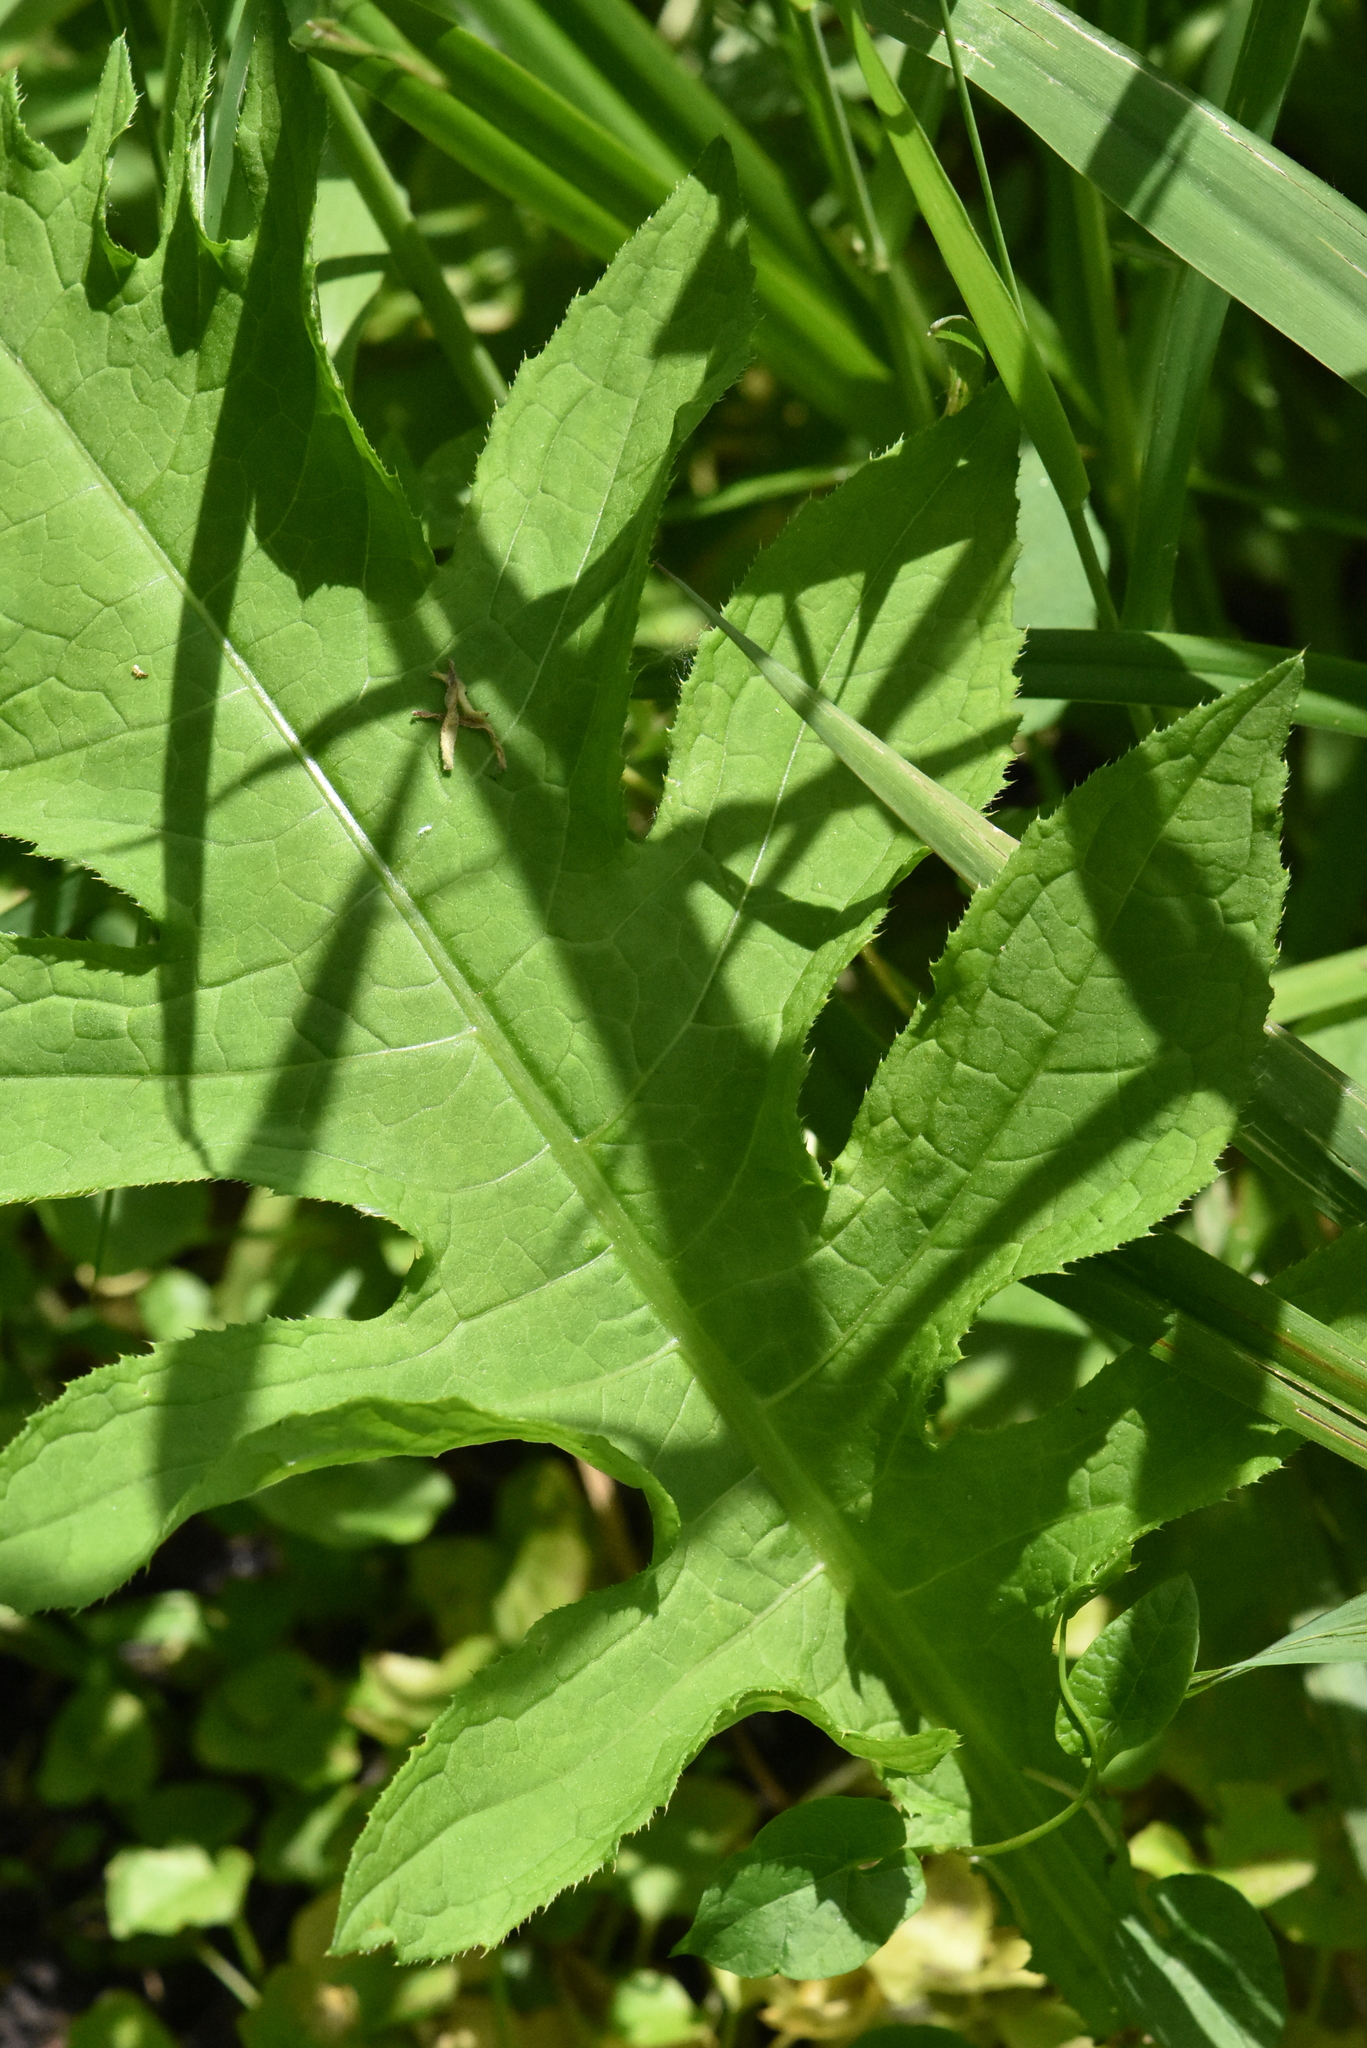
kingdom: Plantae
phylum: Tracheophyta
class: Magnoliopsida
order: Asterales
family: Asteraceae
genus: Cirsium
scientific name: Cirsium oleraceum
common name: Cabbage thistle
